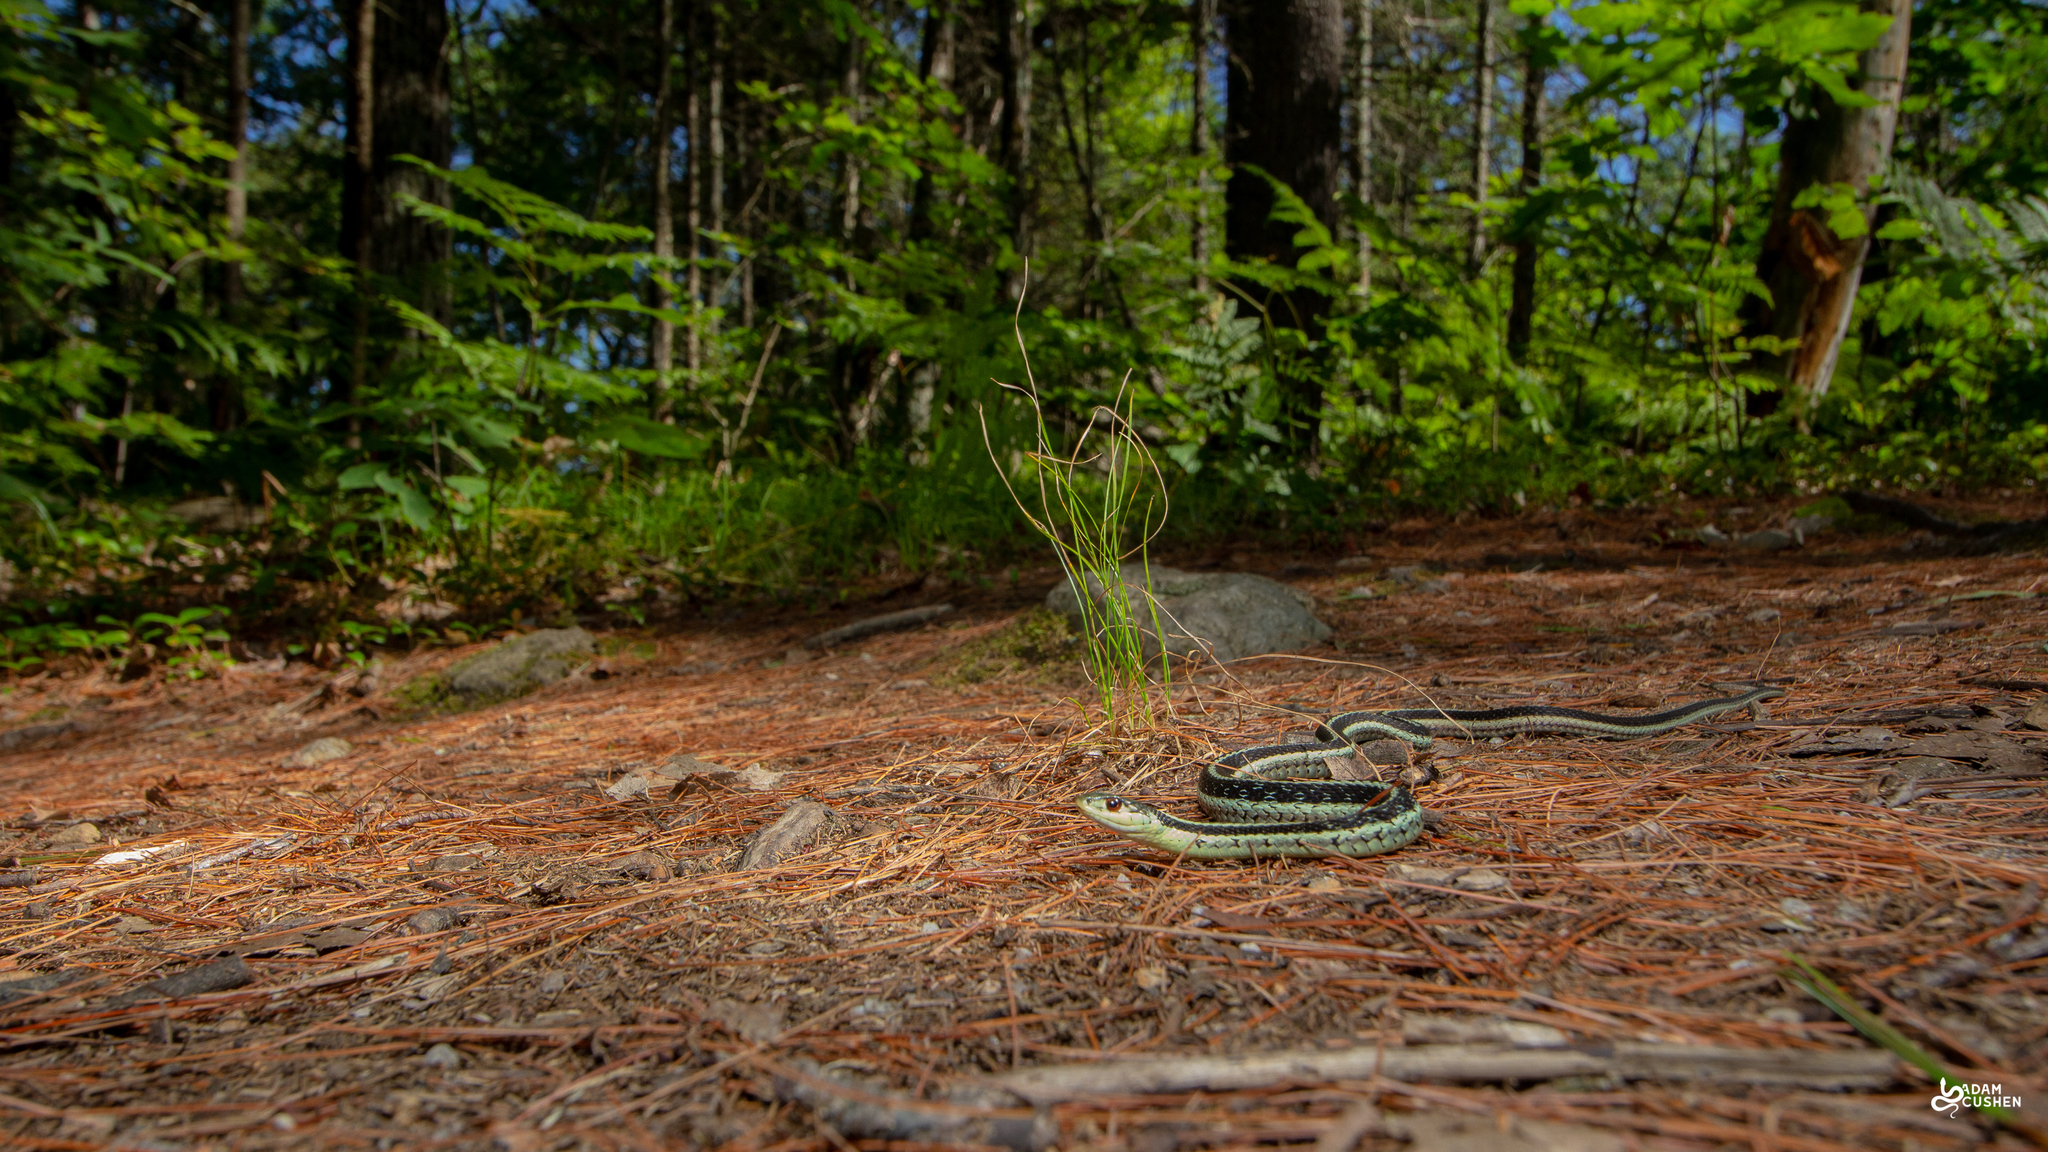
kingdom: Animalia
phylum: Chordata
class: Squamata
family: Colubridae
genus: Thamnophis
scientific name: Thamnophis sirtalis
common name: Common garter snake
